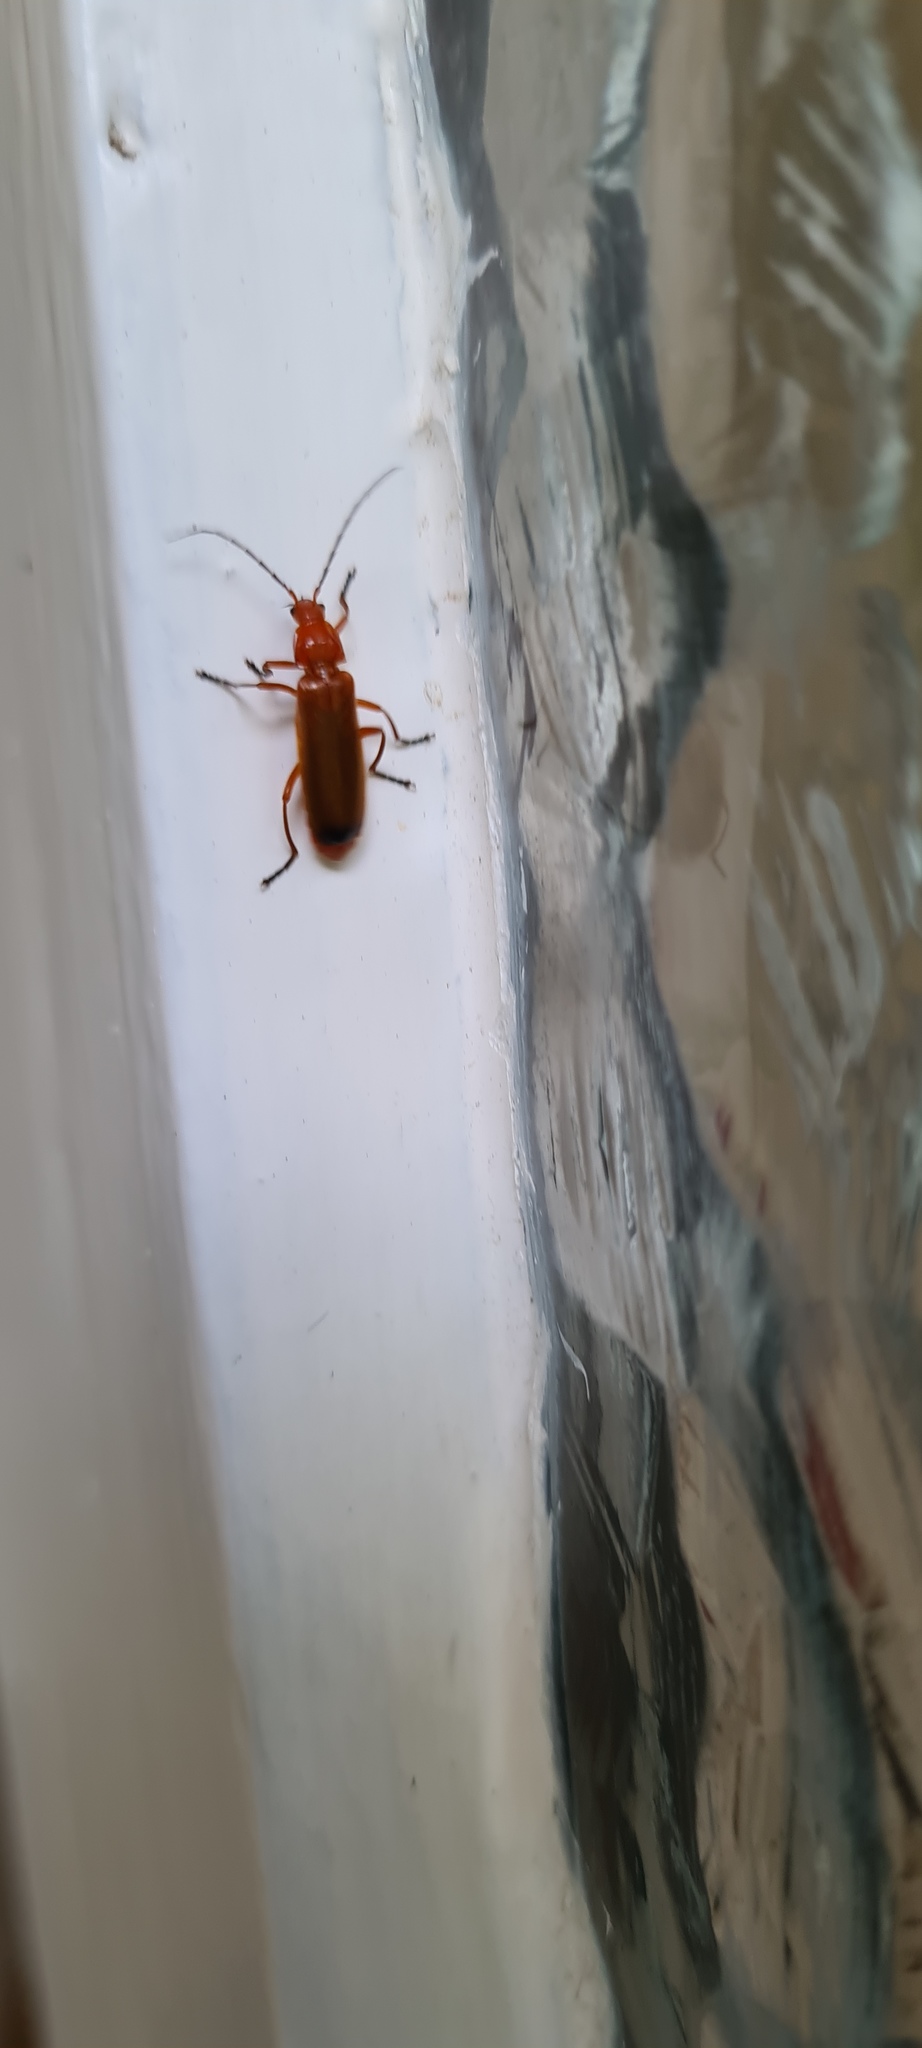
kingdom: Animalia
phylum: Arthropoda
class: Insecta
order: Coleoptera
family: Cantharidae
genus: Rhagonycha
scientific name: Rhagonycha fulva
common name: Common red soldier beetle
